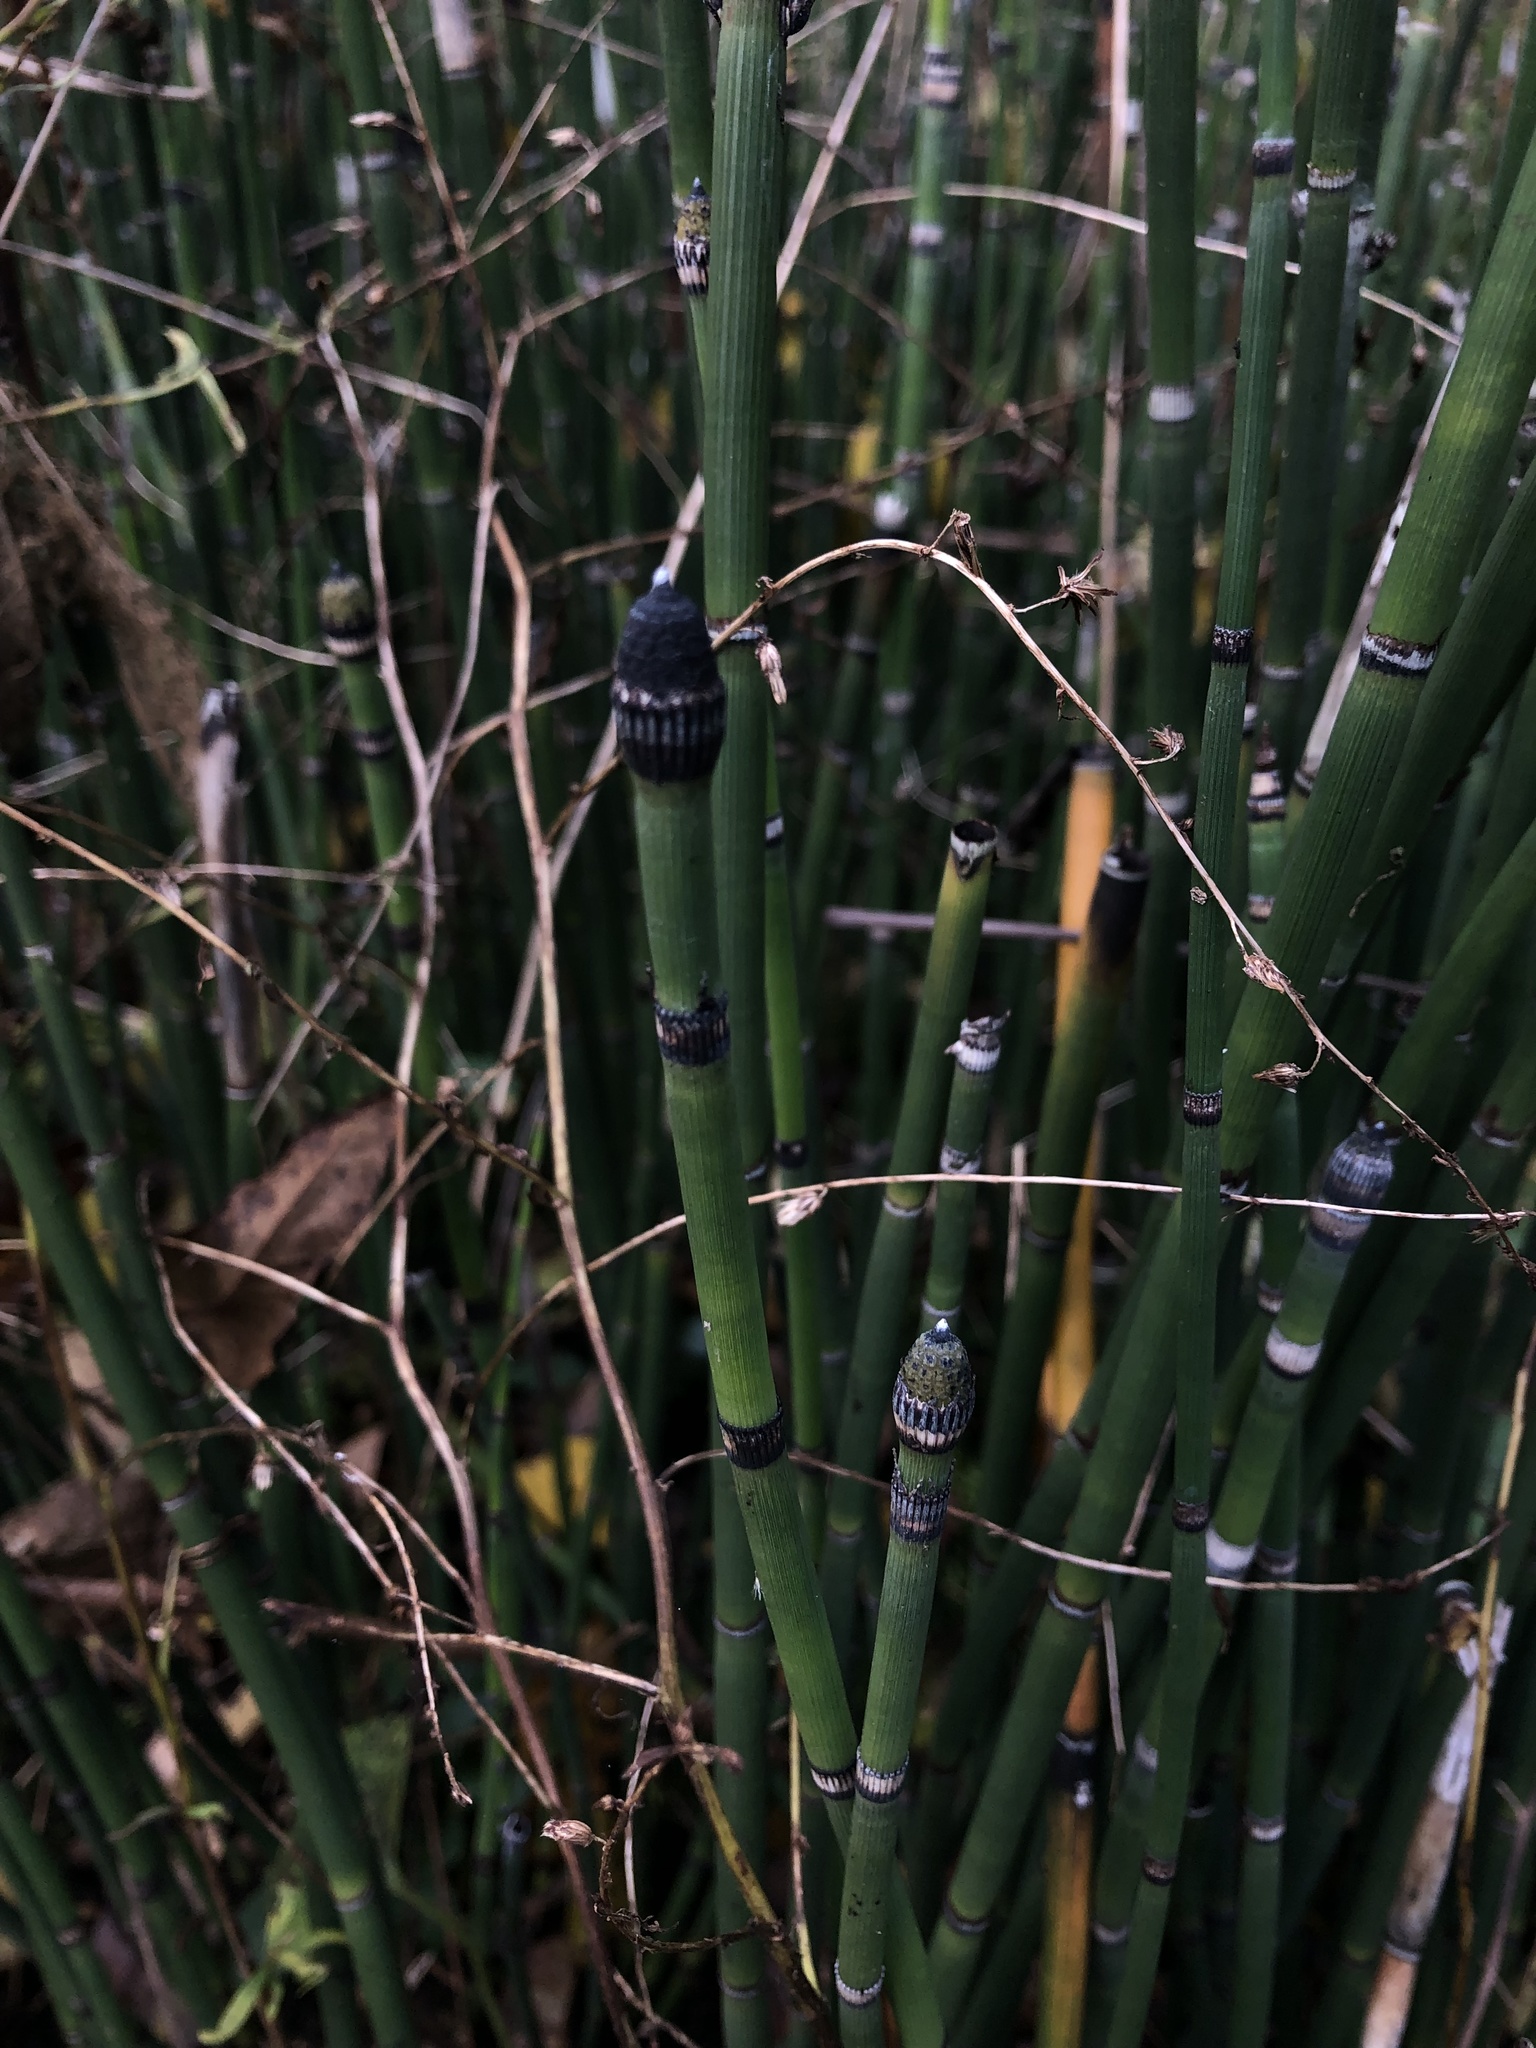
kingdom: Plantae
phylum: Tracheophyta
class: Polypodiopsida
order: Equisetales
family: Equisetaceae
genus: Equisetum
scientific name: Equisetum hyemale
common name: Rough horsetail
